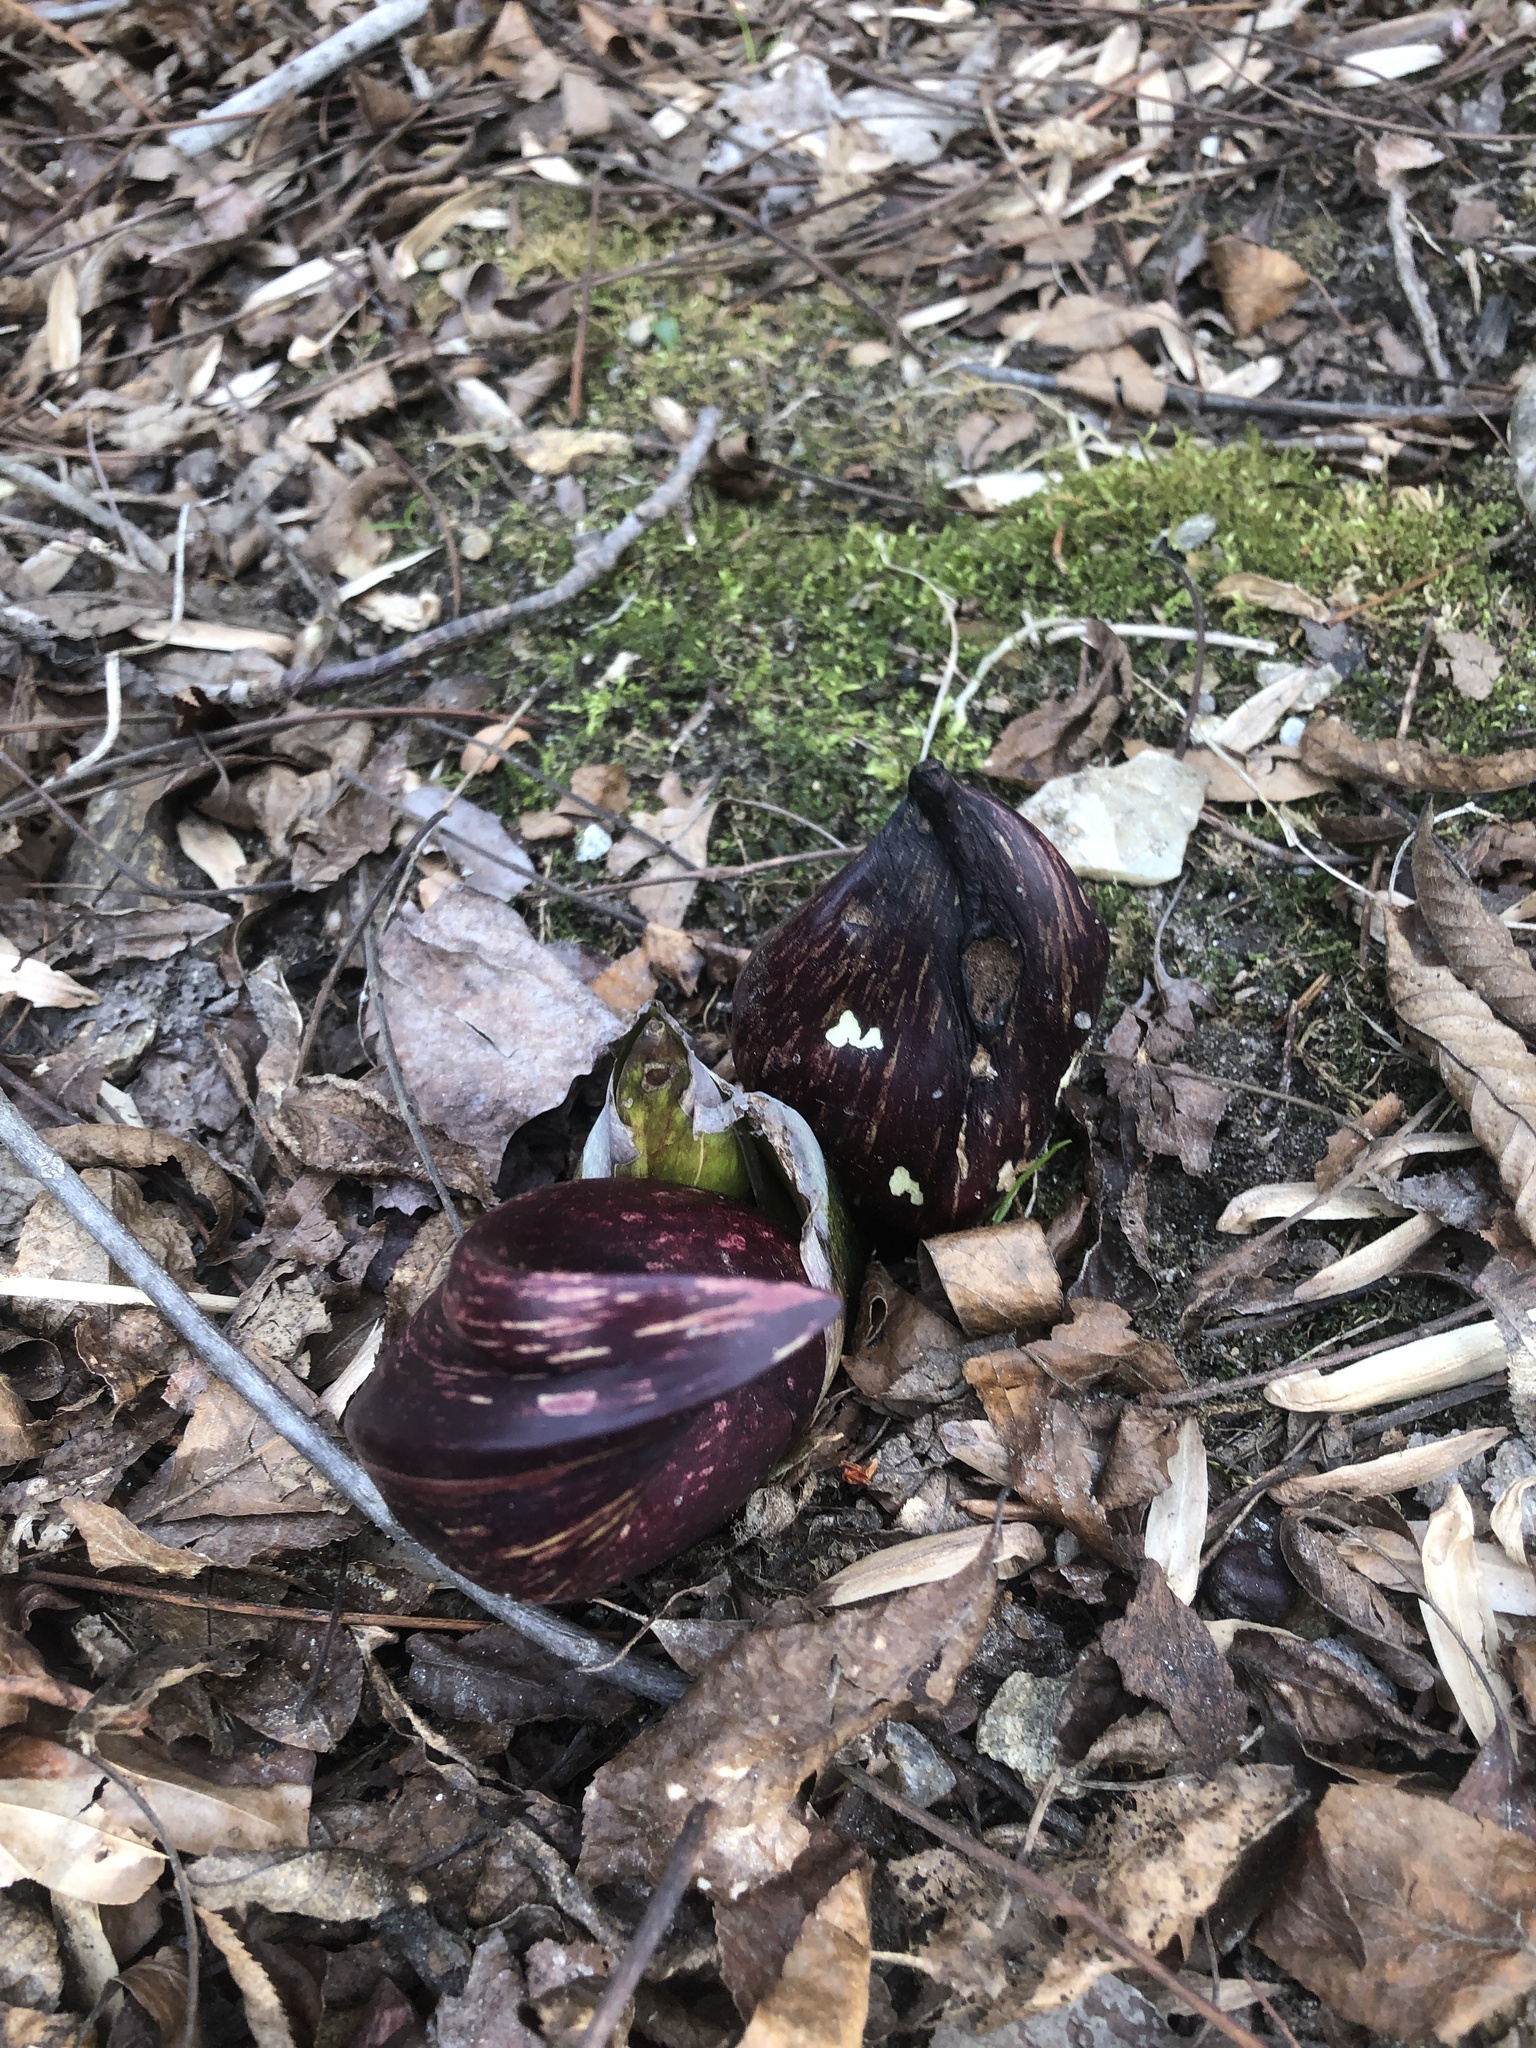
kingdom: Plantae
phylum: Tracheophyta
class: Liliopsida
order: Alismatales
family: Araceae
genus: Symplocarpus
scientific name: Symplocarpus foetidus
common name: Eastern skunk cabbage
